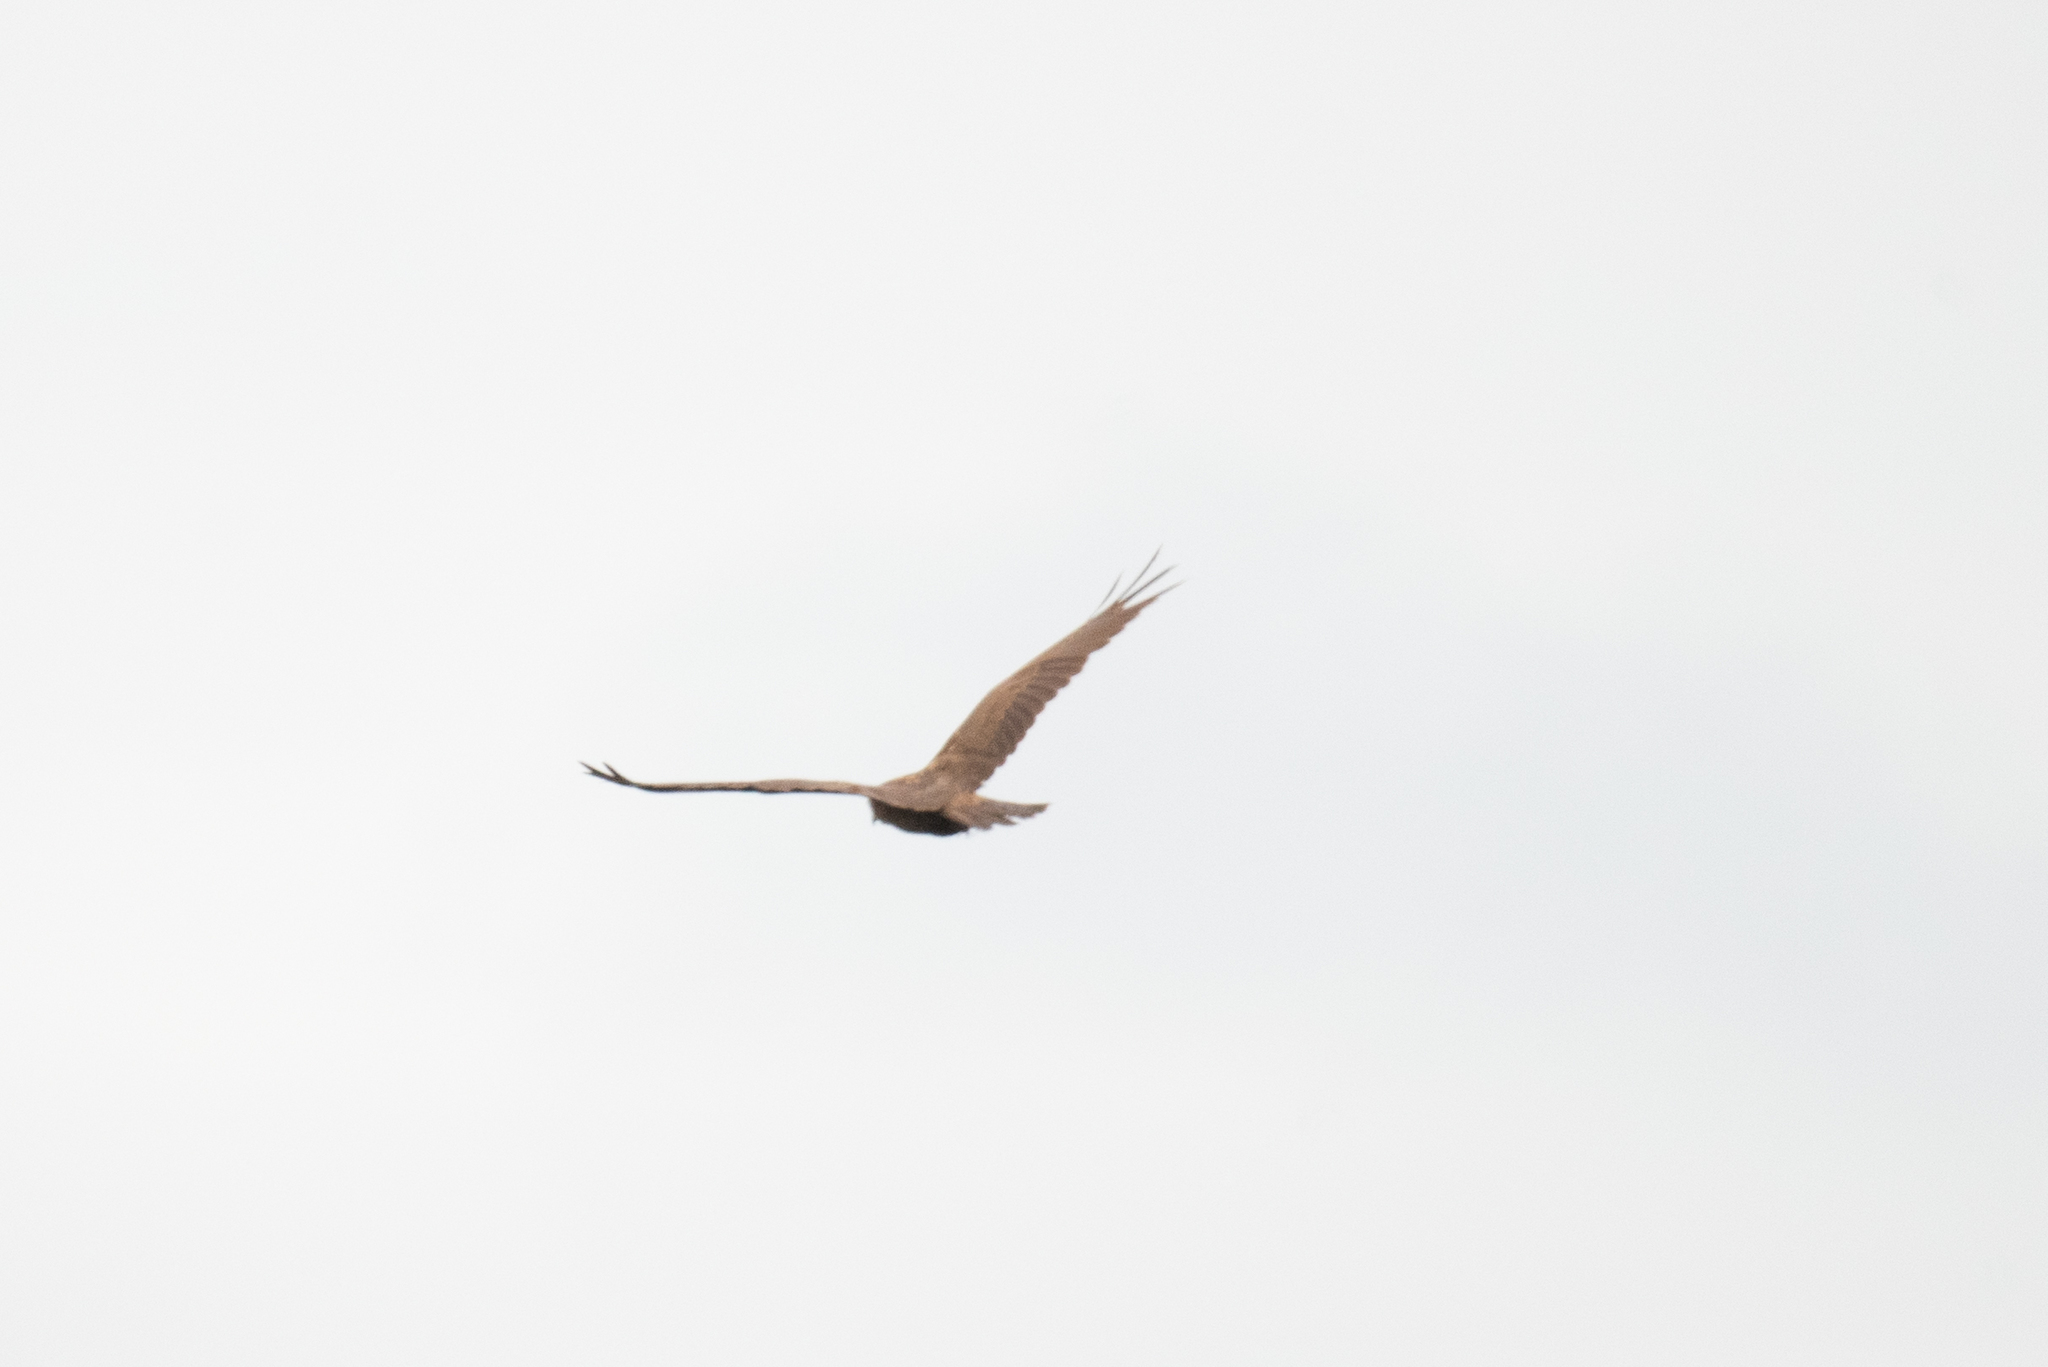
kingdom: Animalia
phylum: Chordata
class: Aves
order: Accipitriformes
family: Accipitridae
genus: Circus
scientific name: Circus aeruginosus
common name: Western marsh harrier
